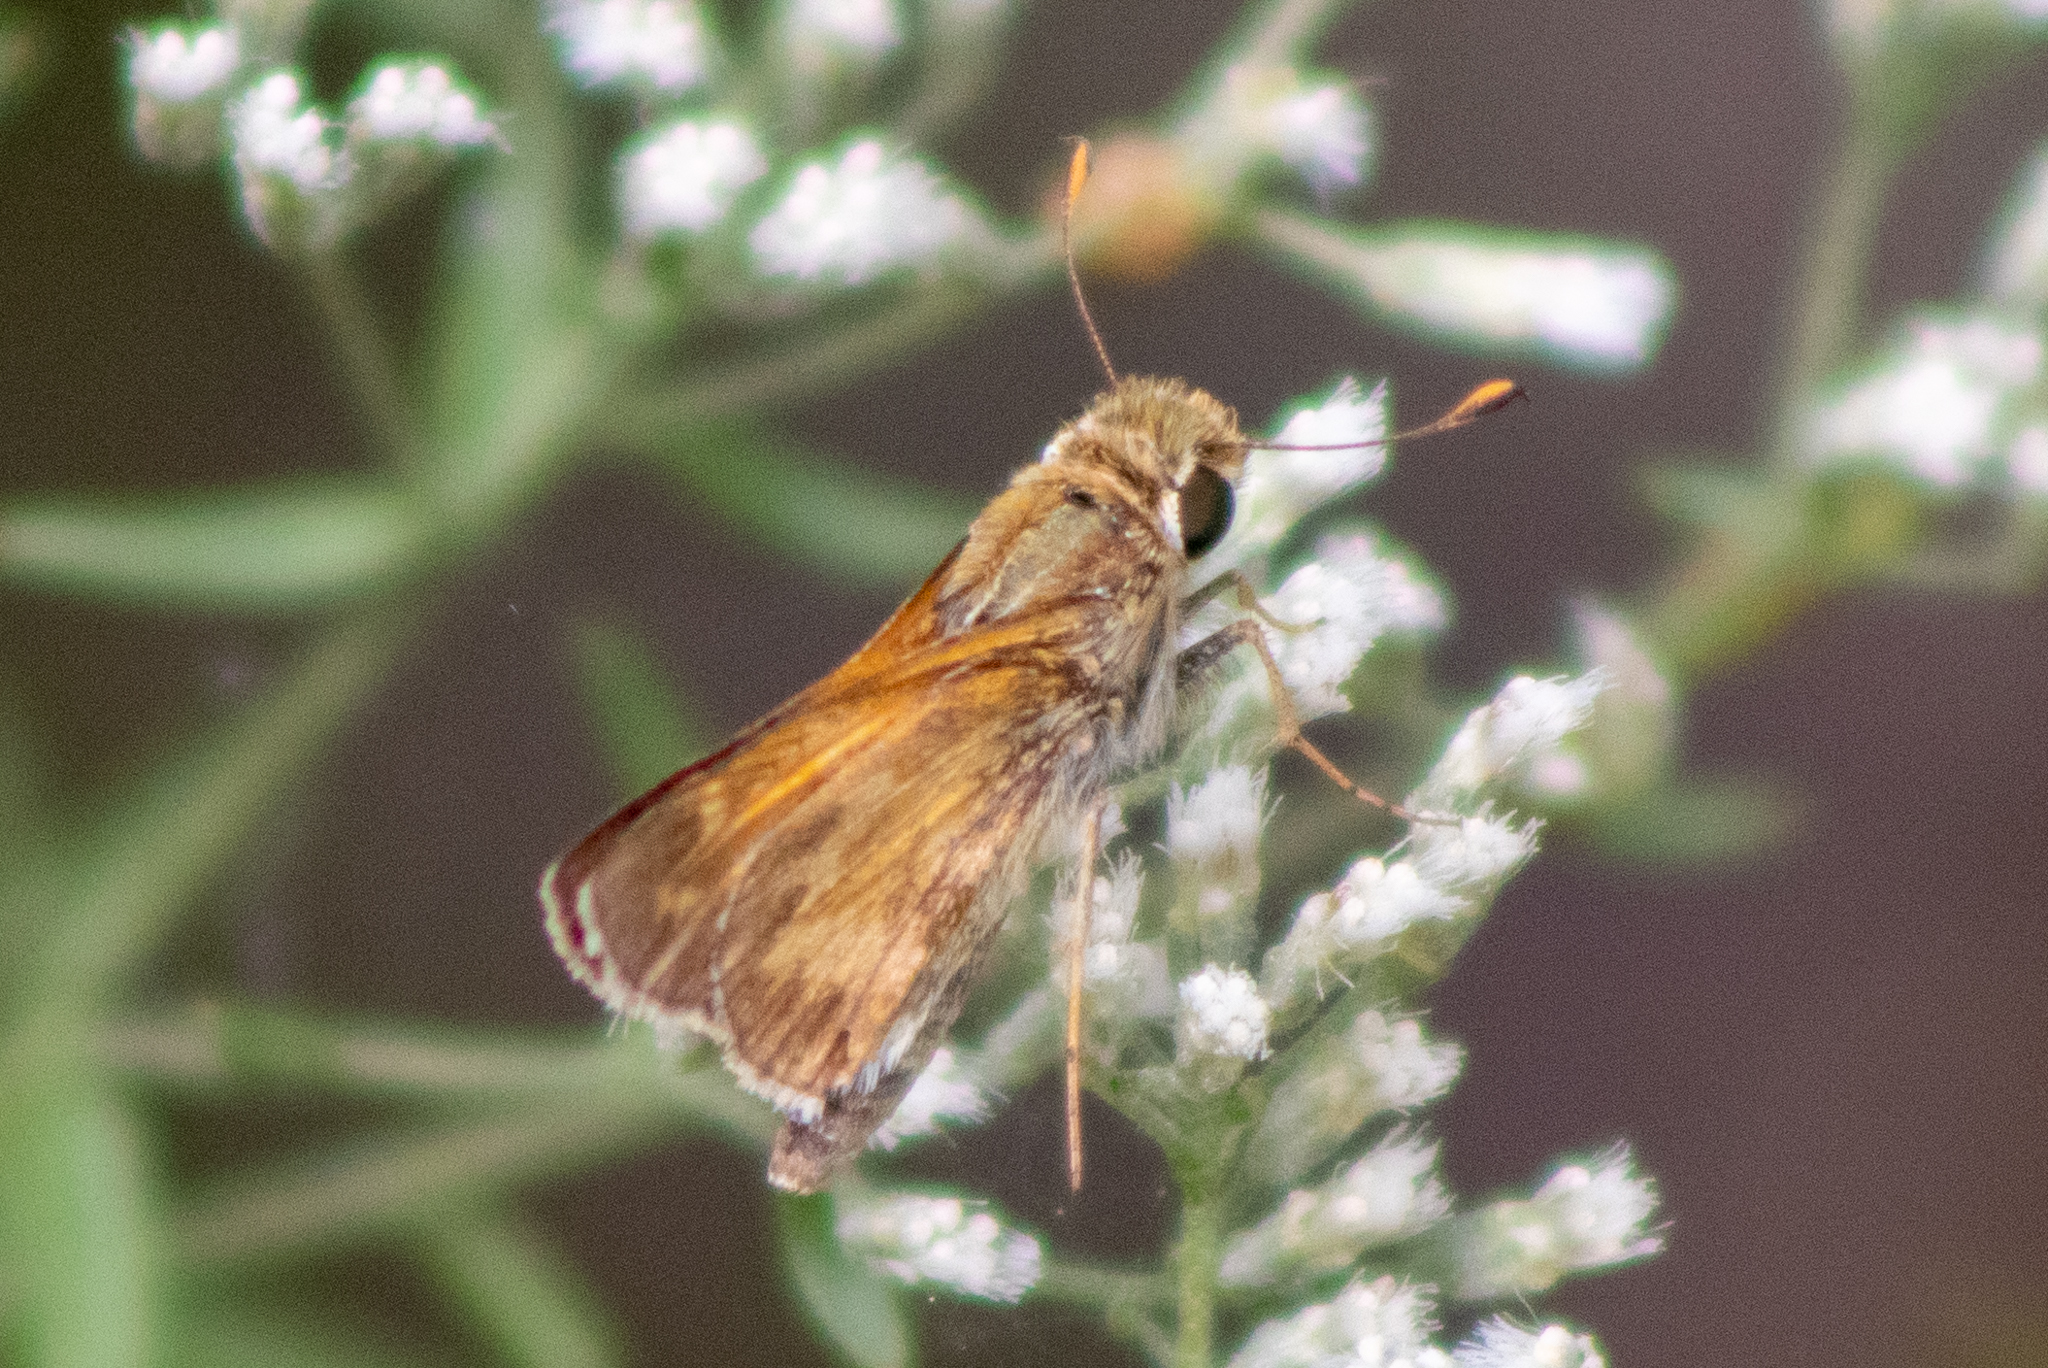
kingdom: Animalia
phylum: Arthropoda
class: Insecta
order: Lepidoptera
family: Hesperiidae
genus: Atalopedes
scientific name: Atalopedes
